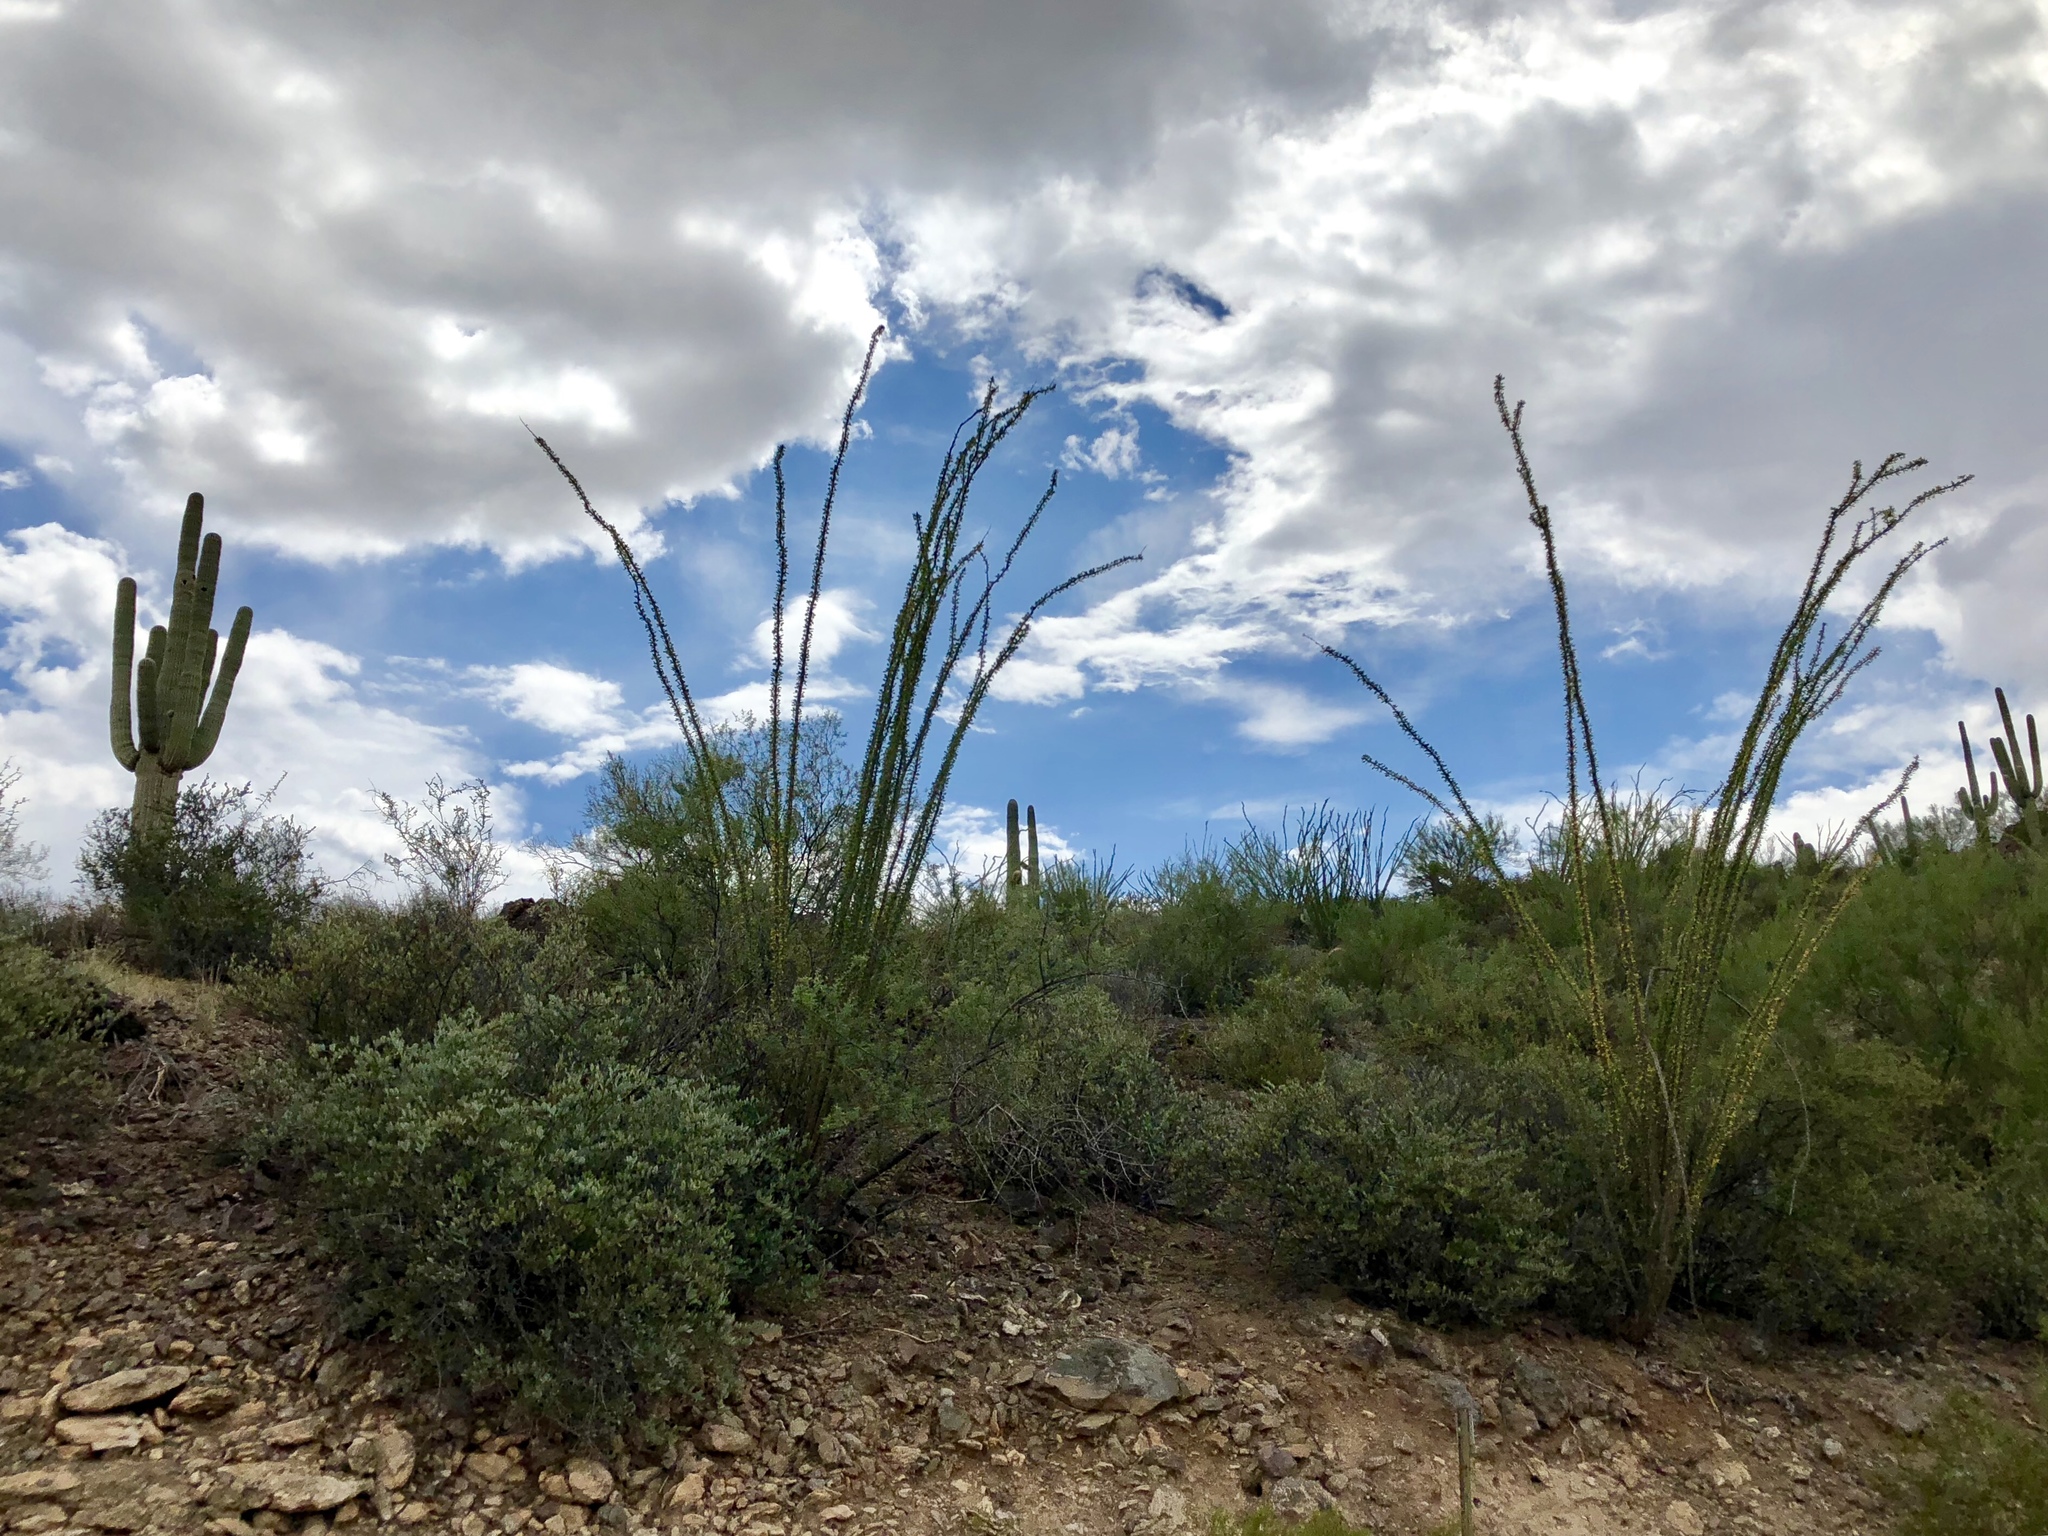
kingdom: Plantae
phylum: Tracheophyta
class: Magnoliopsida
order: Ericales
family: Fouquieriaceae
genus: Fouquieria
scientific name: Fouquieria splendens
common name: Vine-cactus
